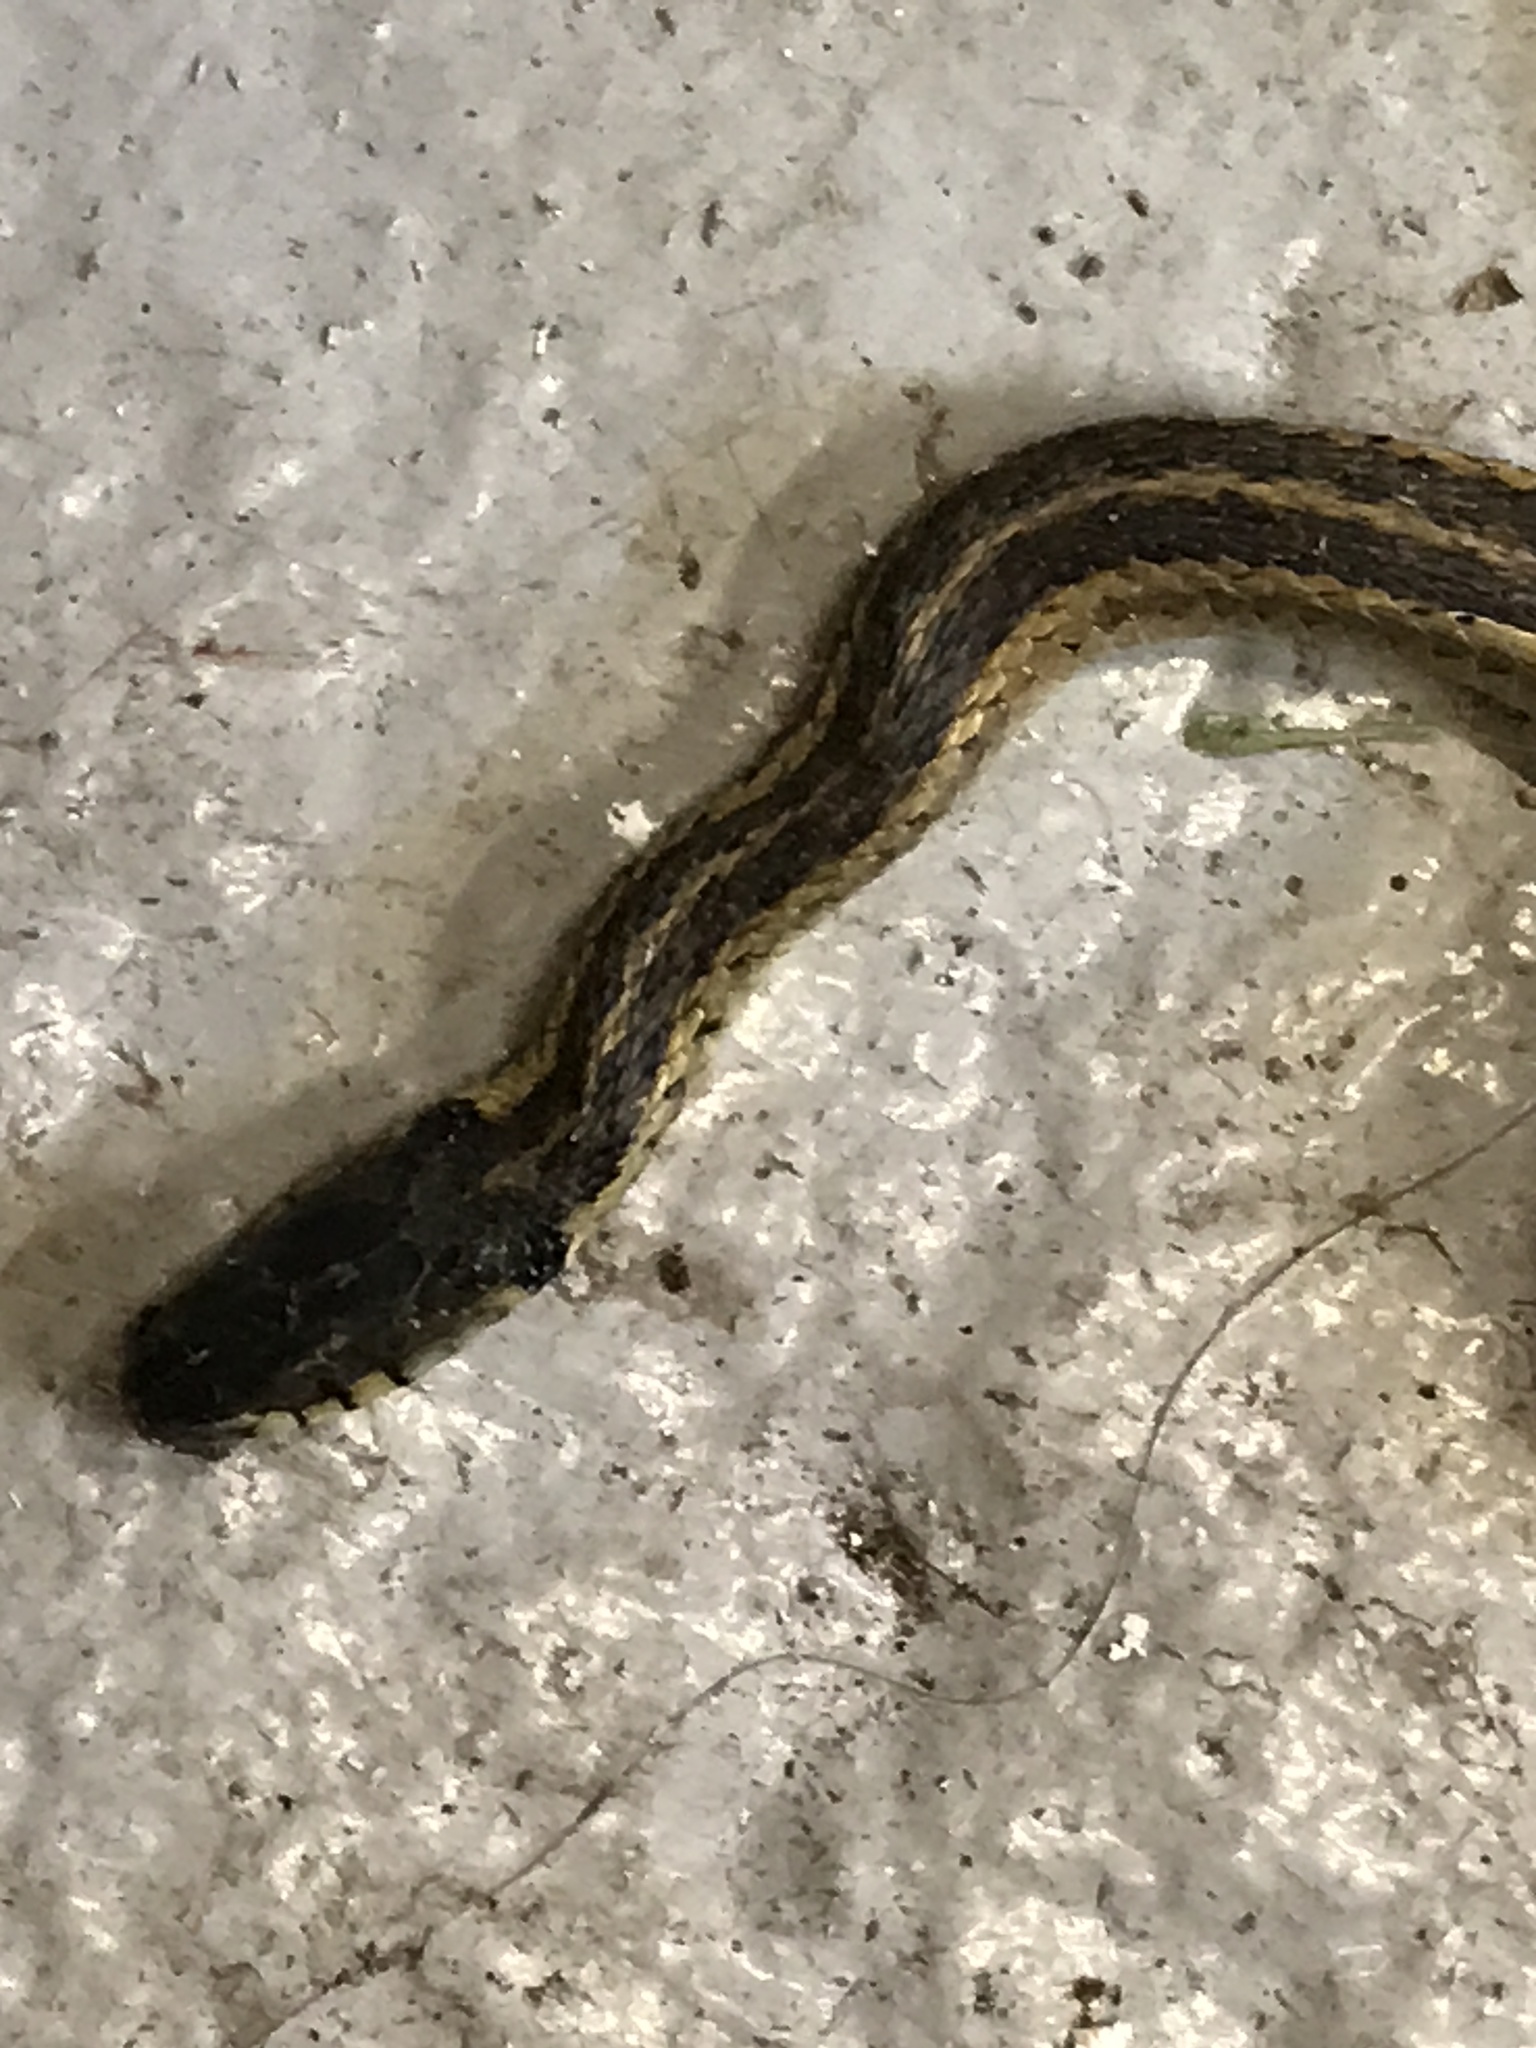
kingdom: Animalia
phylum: Chordata
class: Squamata
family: Colubridae
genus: Thamnophis
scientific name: Thamnophis sirtalis
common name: Common garter snake
